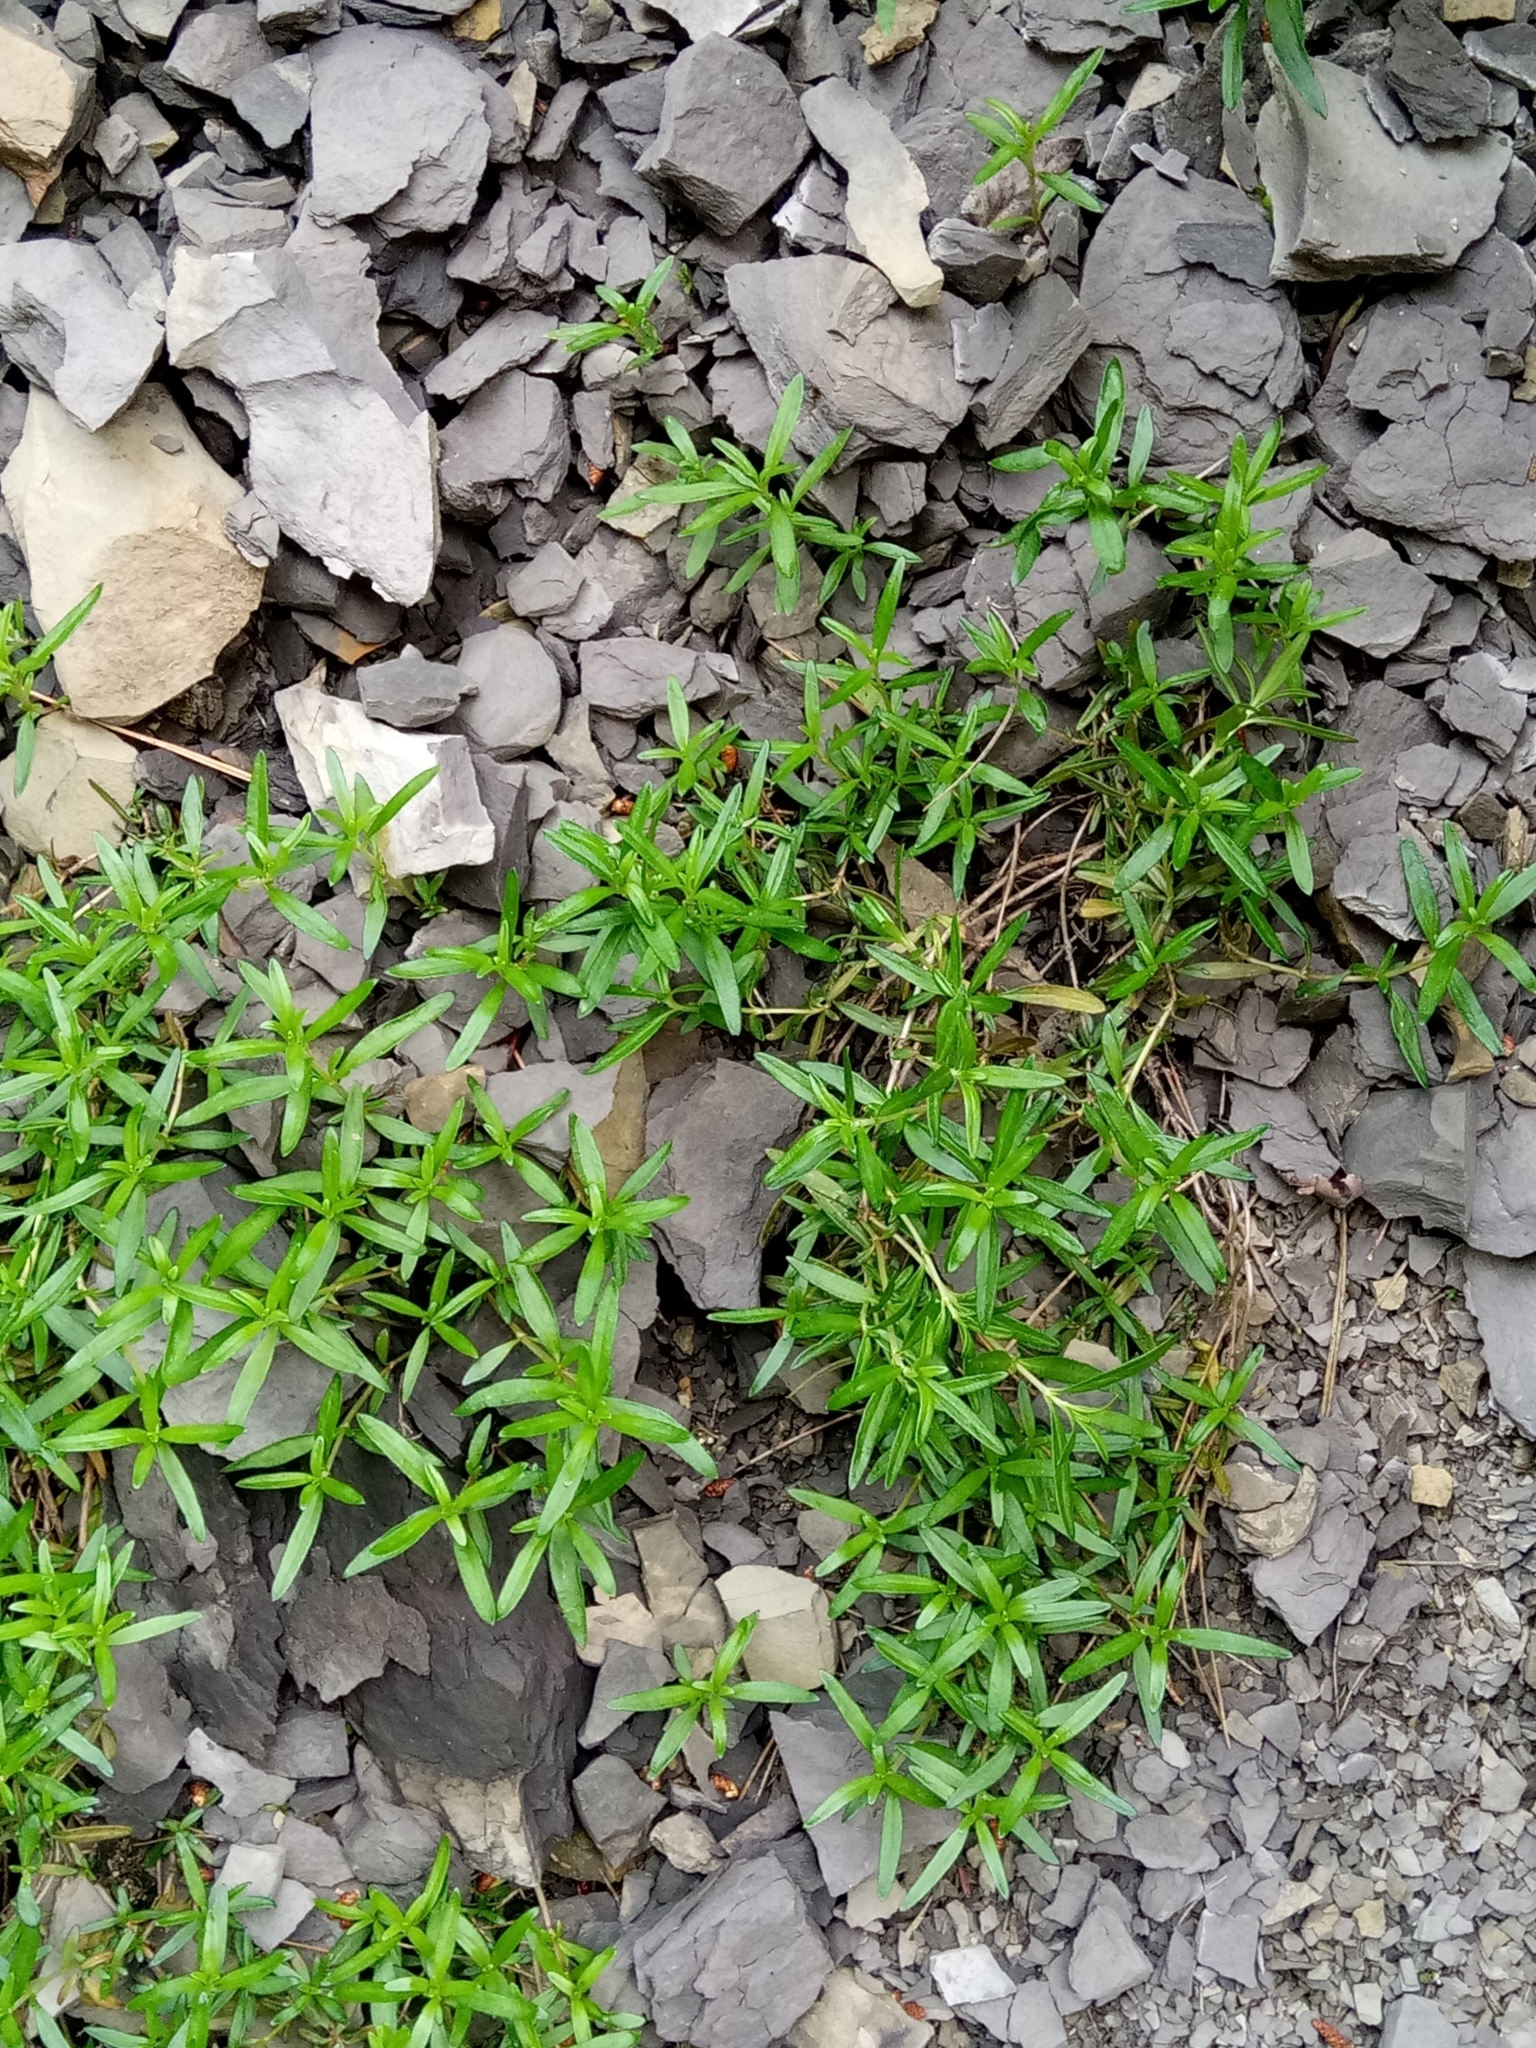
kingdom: Plantae
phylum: Tracheophyta
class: Magnoliopsida
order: Gentianales
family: Rubiaceae
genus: Plocama
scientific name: Plocama calabrica
